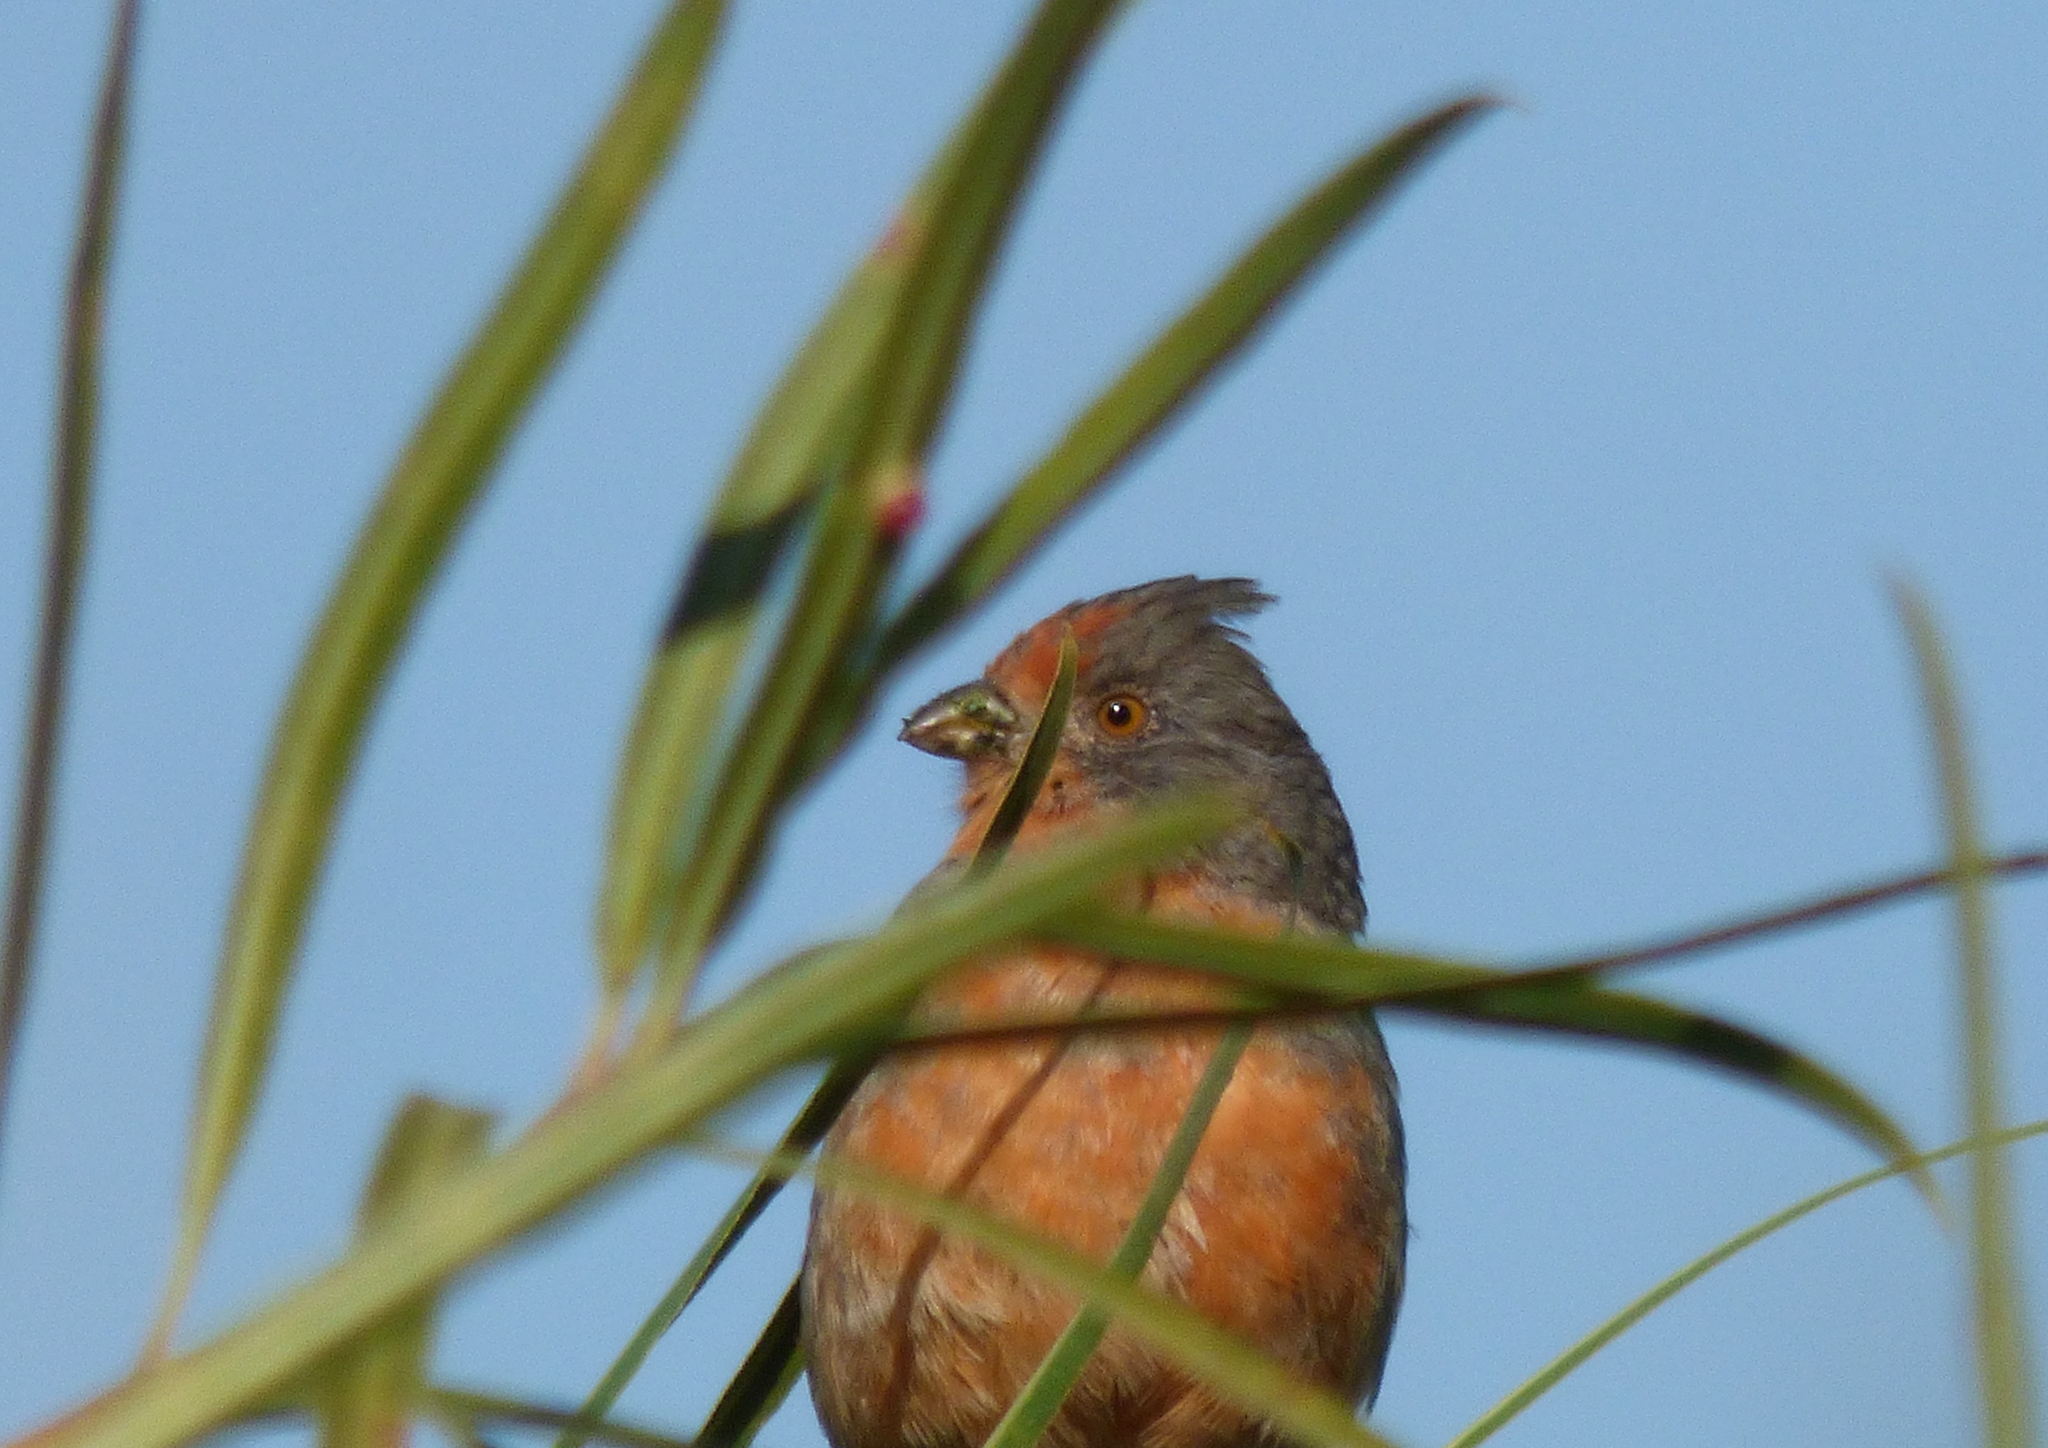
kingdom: Animalia
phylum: Chordata
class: Aves
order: Passeriformes
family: Cotingidae
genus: Phytotoma
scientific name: Phytotoma rutila
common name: White-tipped plantcutter
